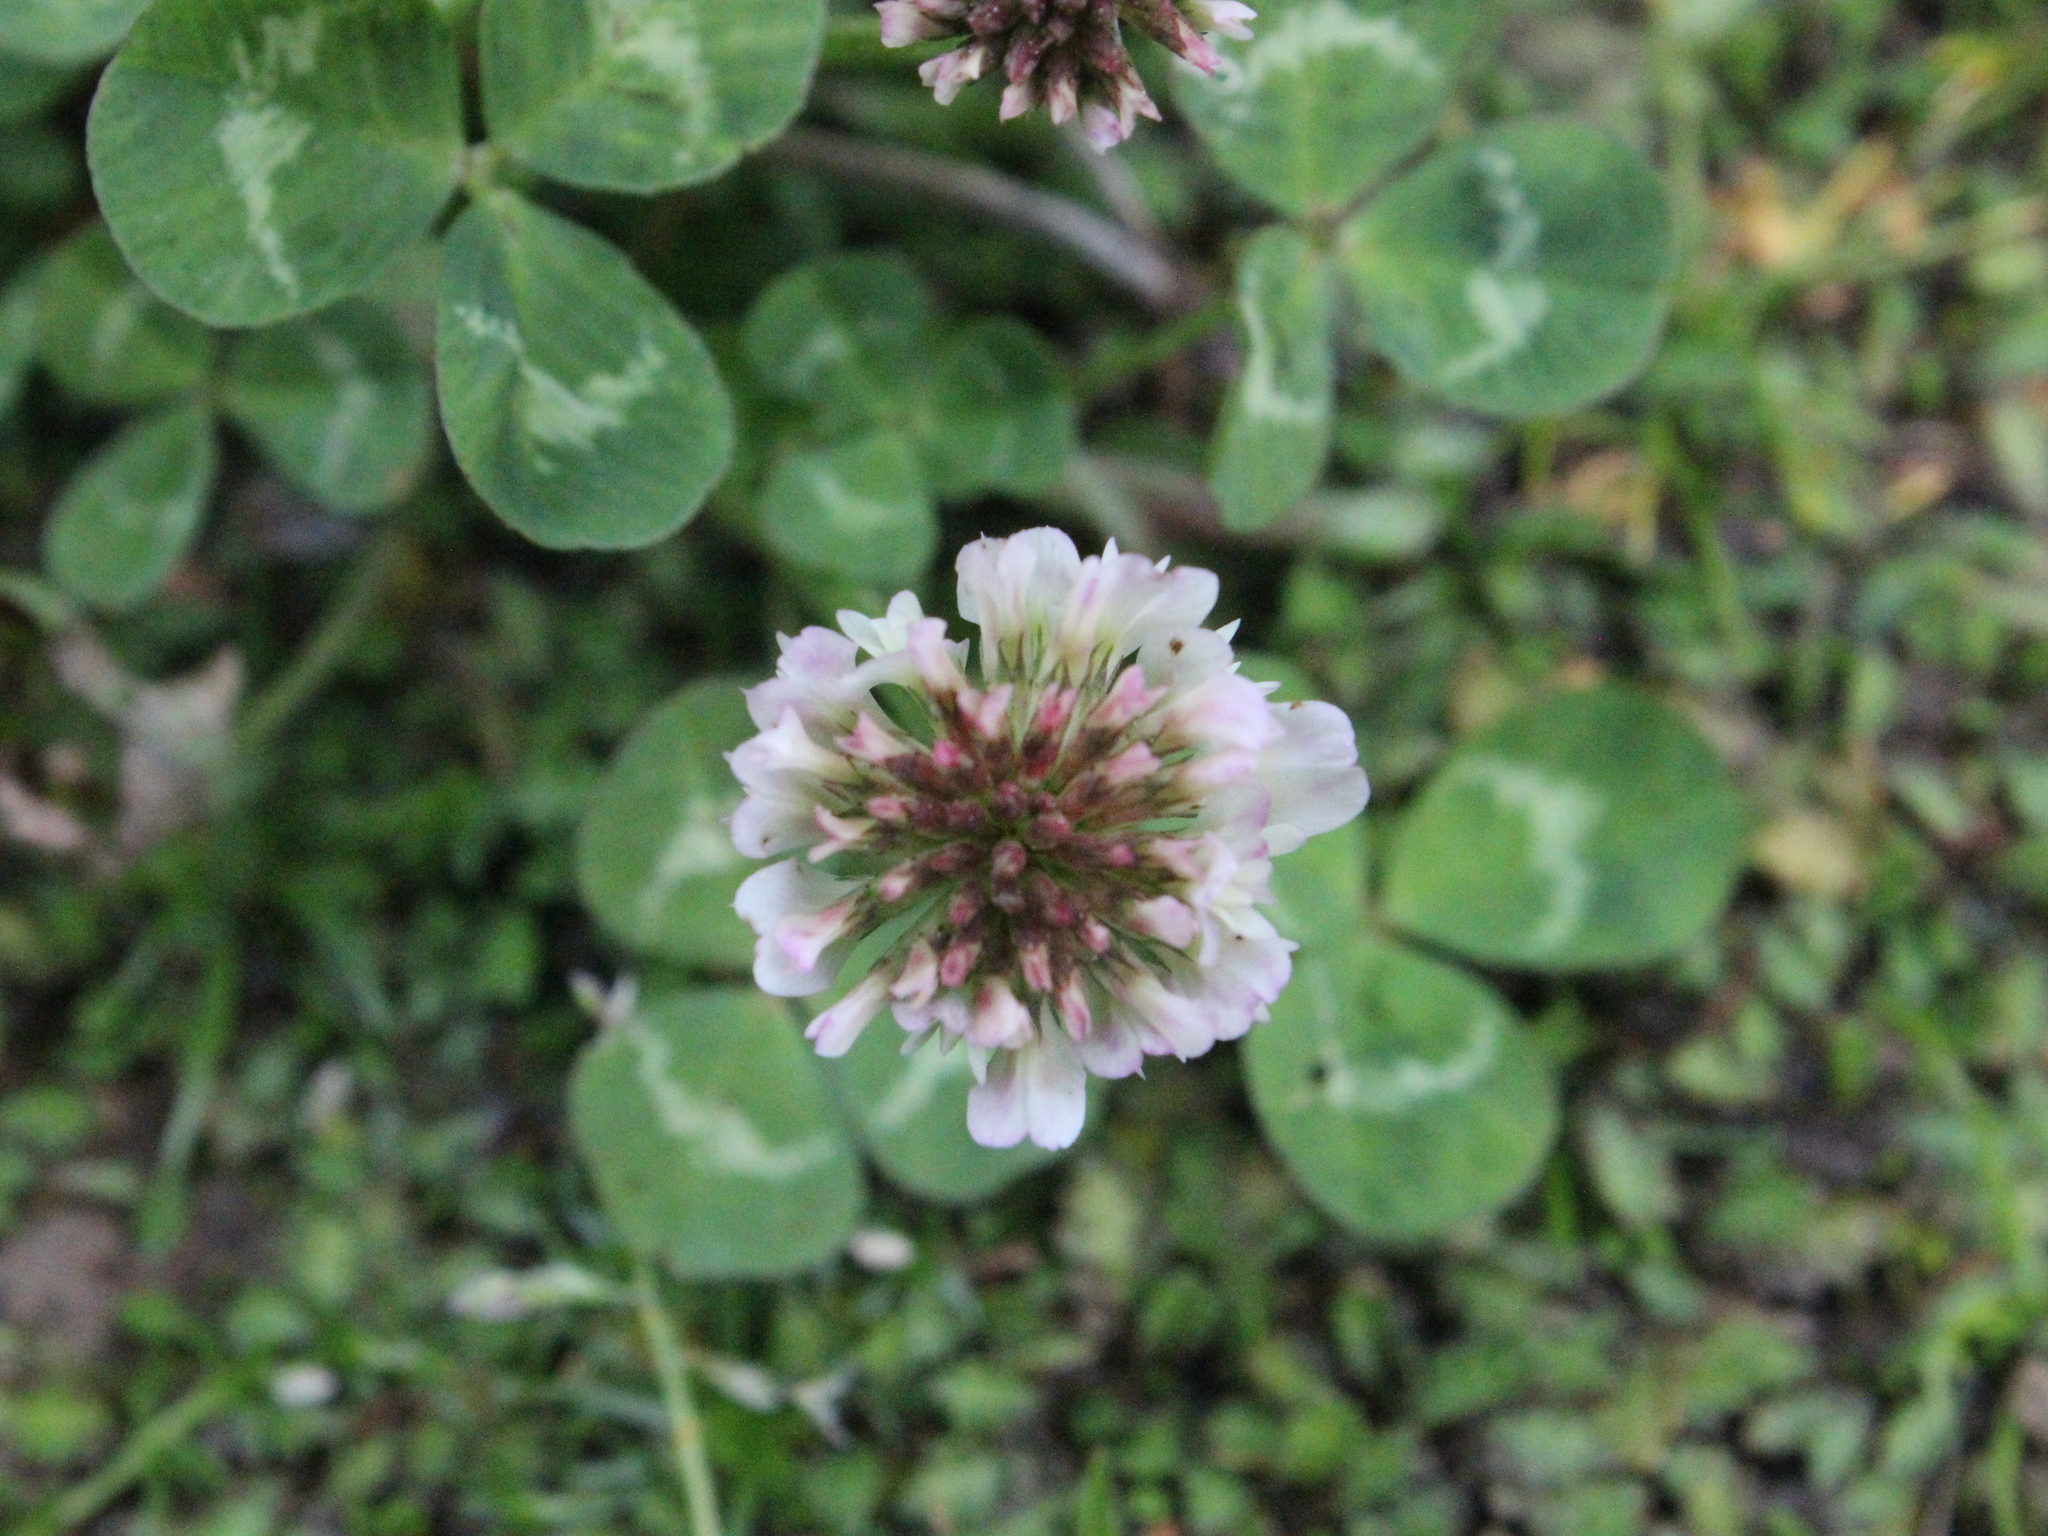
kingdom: Plantae
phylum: Tracheophyta
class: Magnoliopsida
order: Fabales
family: Fabaceae
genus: Trifolium
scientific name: Trifolium repens
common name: White clover
